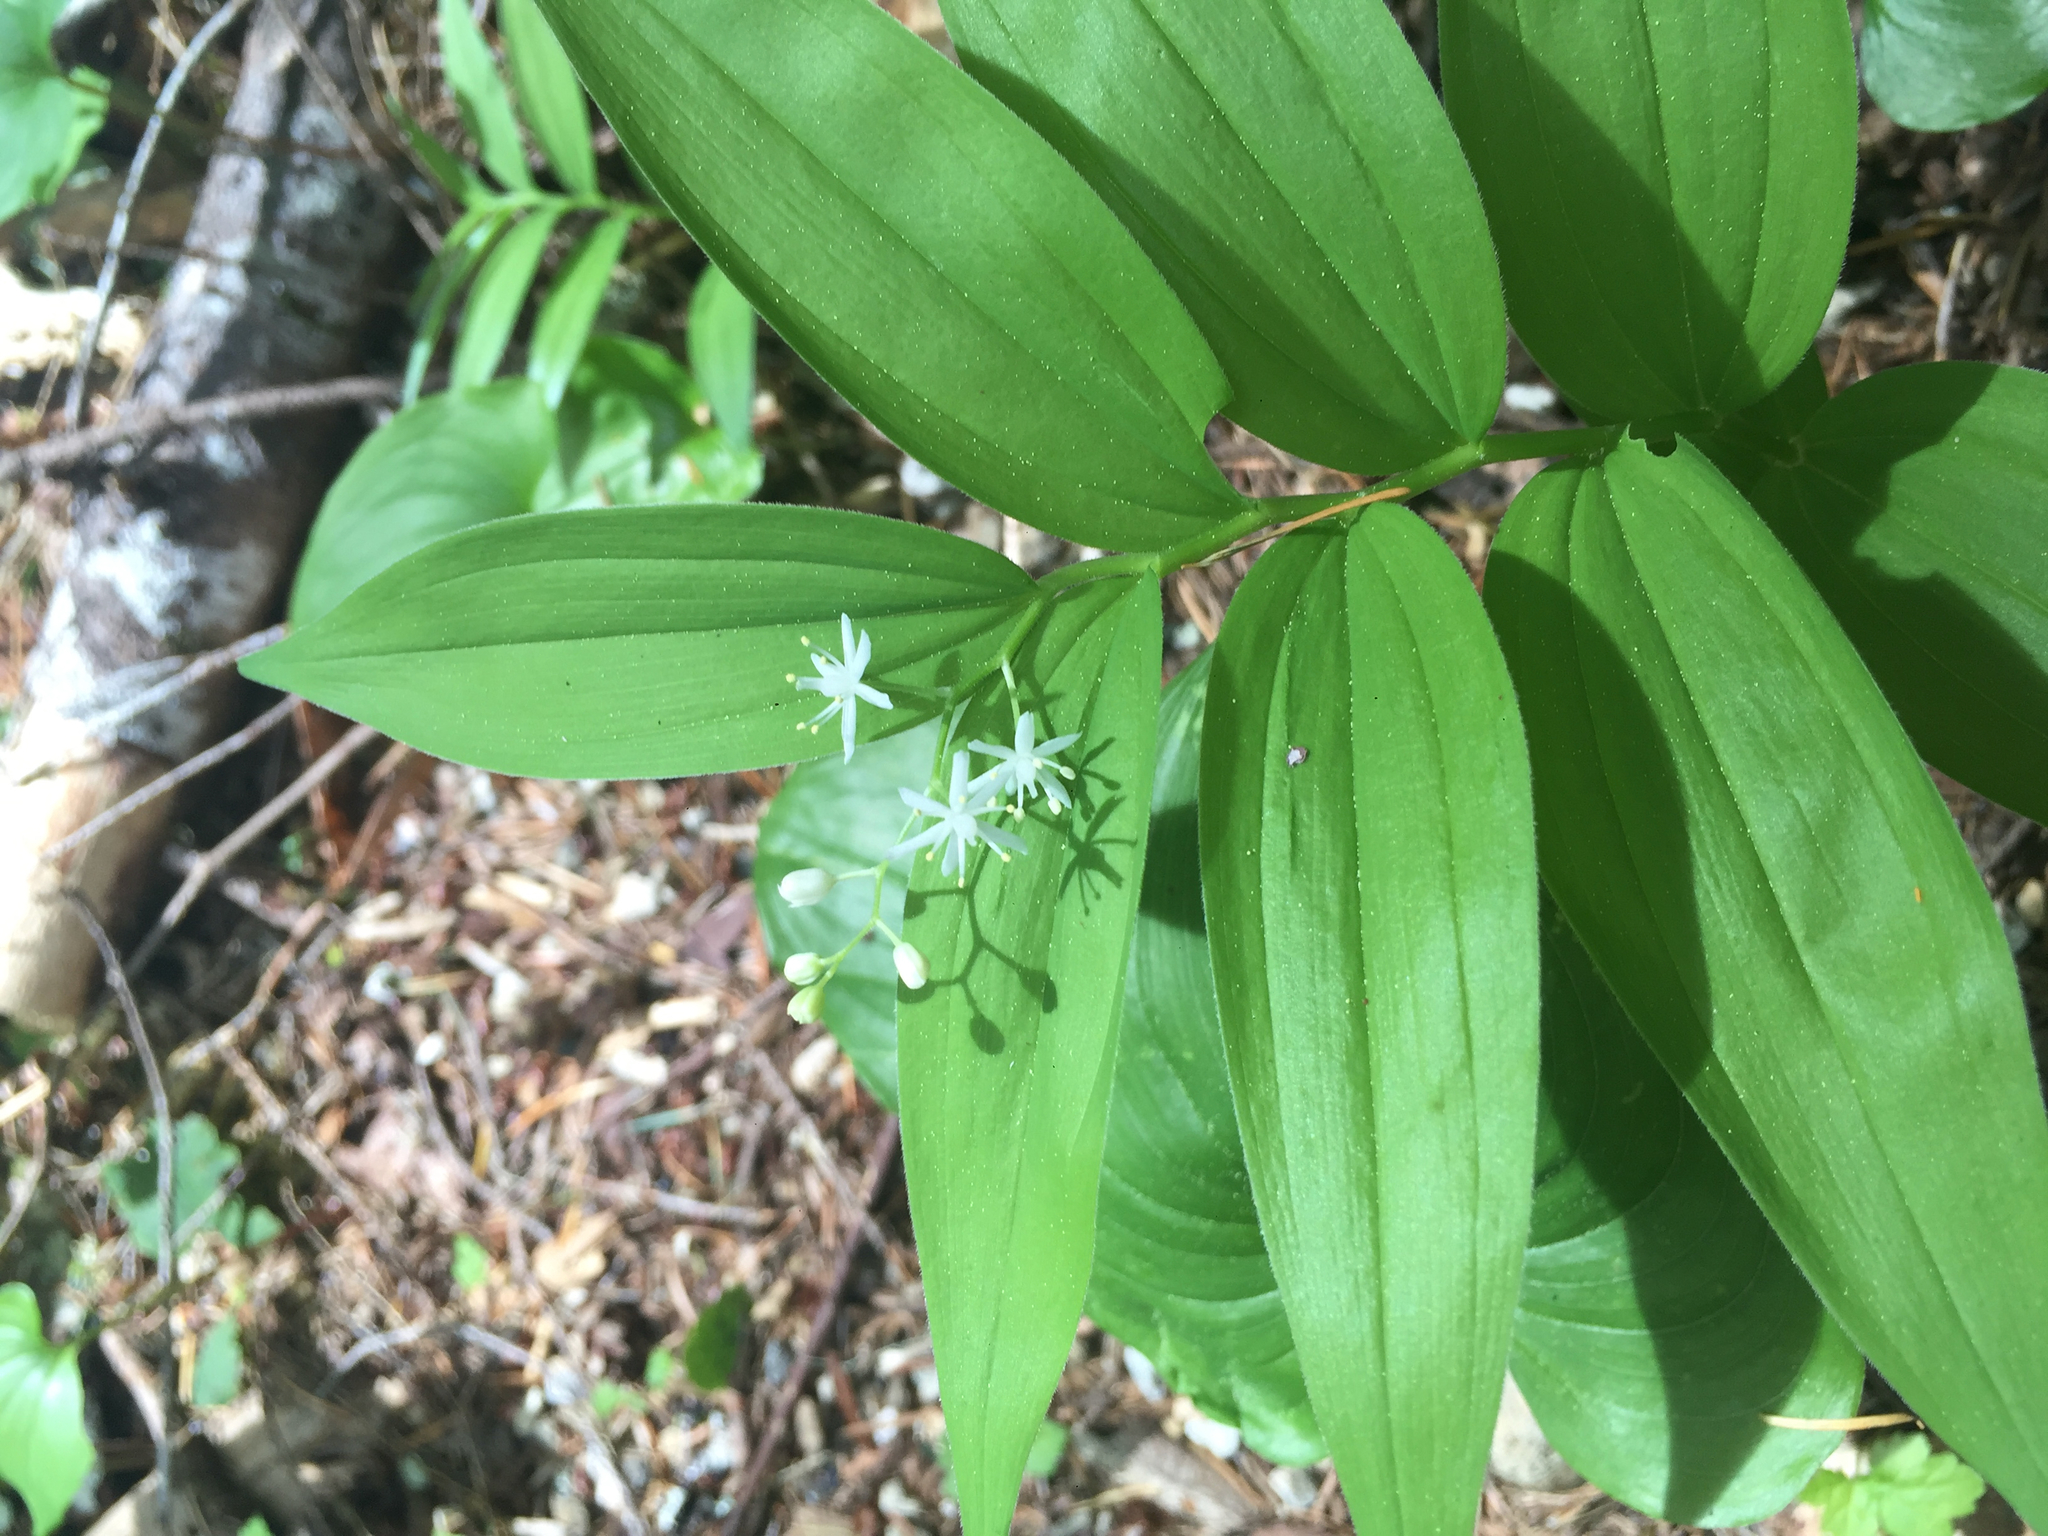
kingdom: Plantae
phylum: Tracheophyta
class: Liliopsida
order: Asparagales
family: Asparagaceae
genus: Maianthemum
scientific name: Maianthemum stellatum
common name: Little false solomon's seal
